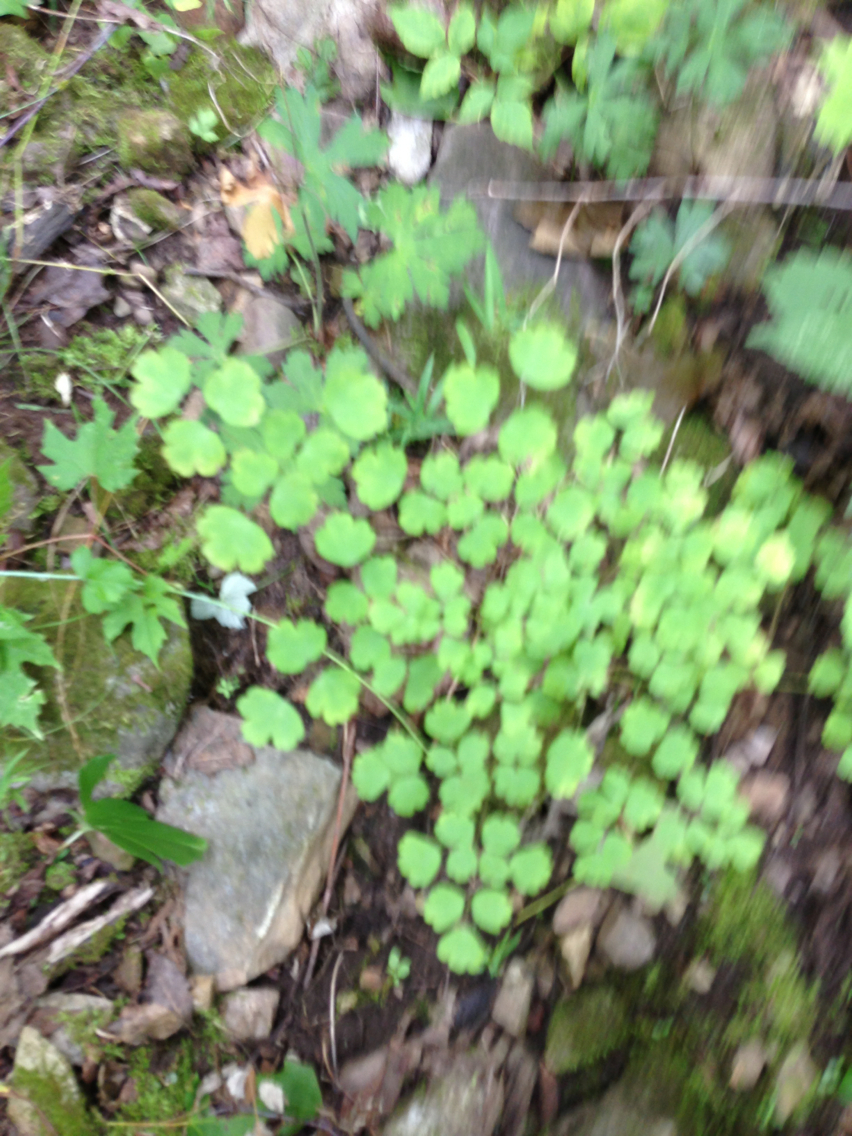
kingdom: Plantae
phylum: Tracheophyta
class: Magnoliopsida
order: Ranunculales
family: Ranunculaceae
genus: Thalictrum
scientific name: Thalictrum dioicum
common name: Early meadow-rue
